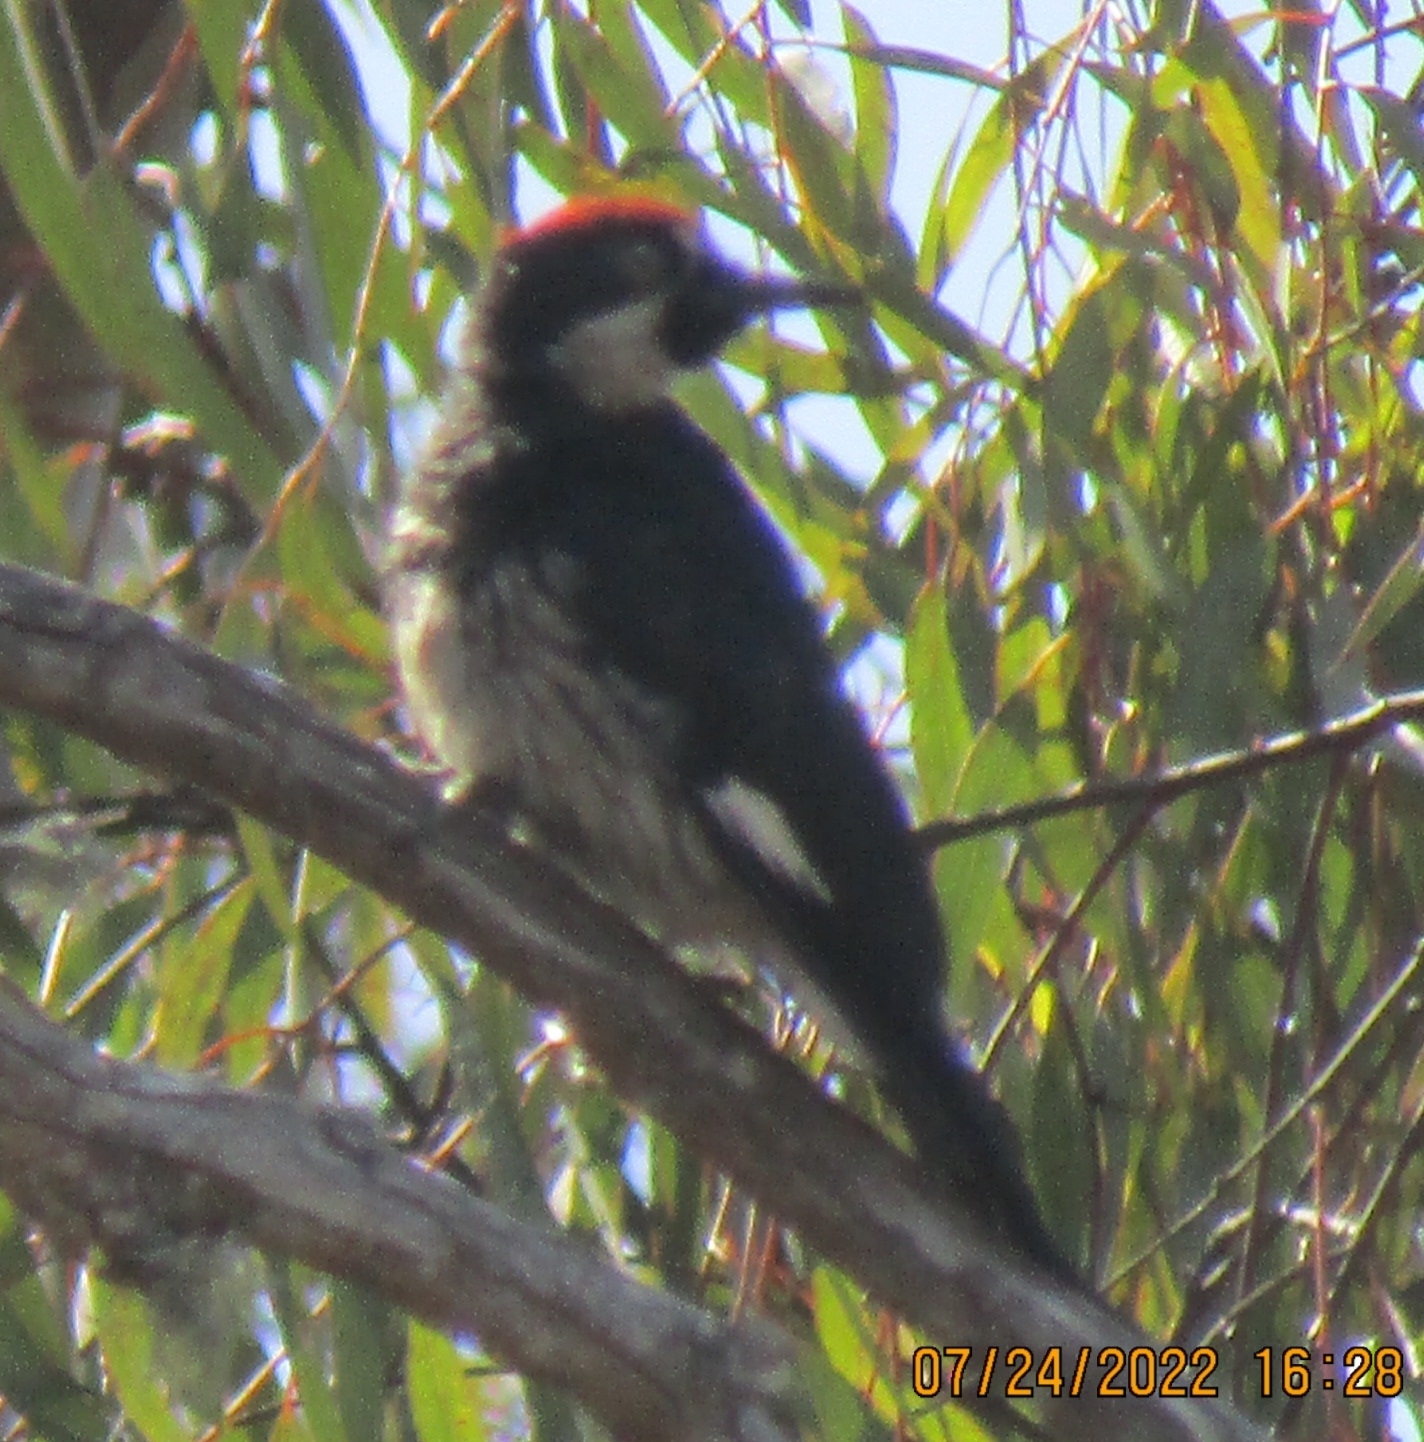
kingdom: Animalia
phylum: Chordata
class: Aves
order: Piciformes
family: Picidae
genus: Melanerpes
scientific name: Melanerpes formicivorus
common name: Acorn woodpecker
